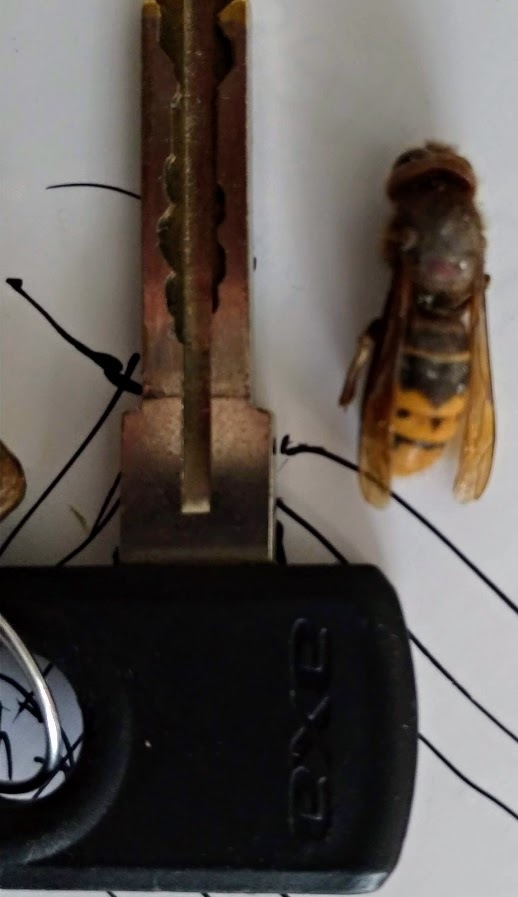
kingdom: Animalia
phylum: Arthropoda
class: Insecta
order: Hymenoptera
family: Vespidae
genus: Vespa
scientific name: Vespa crabro
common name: Hornet
